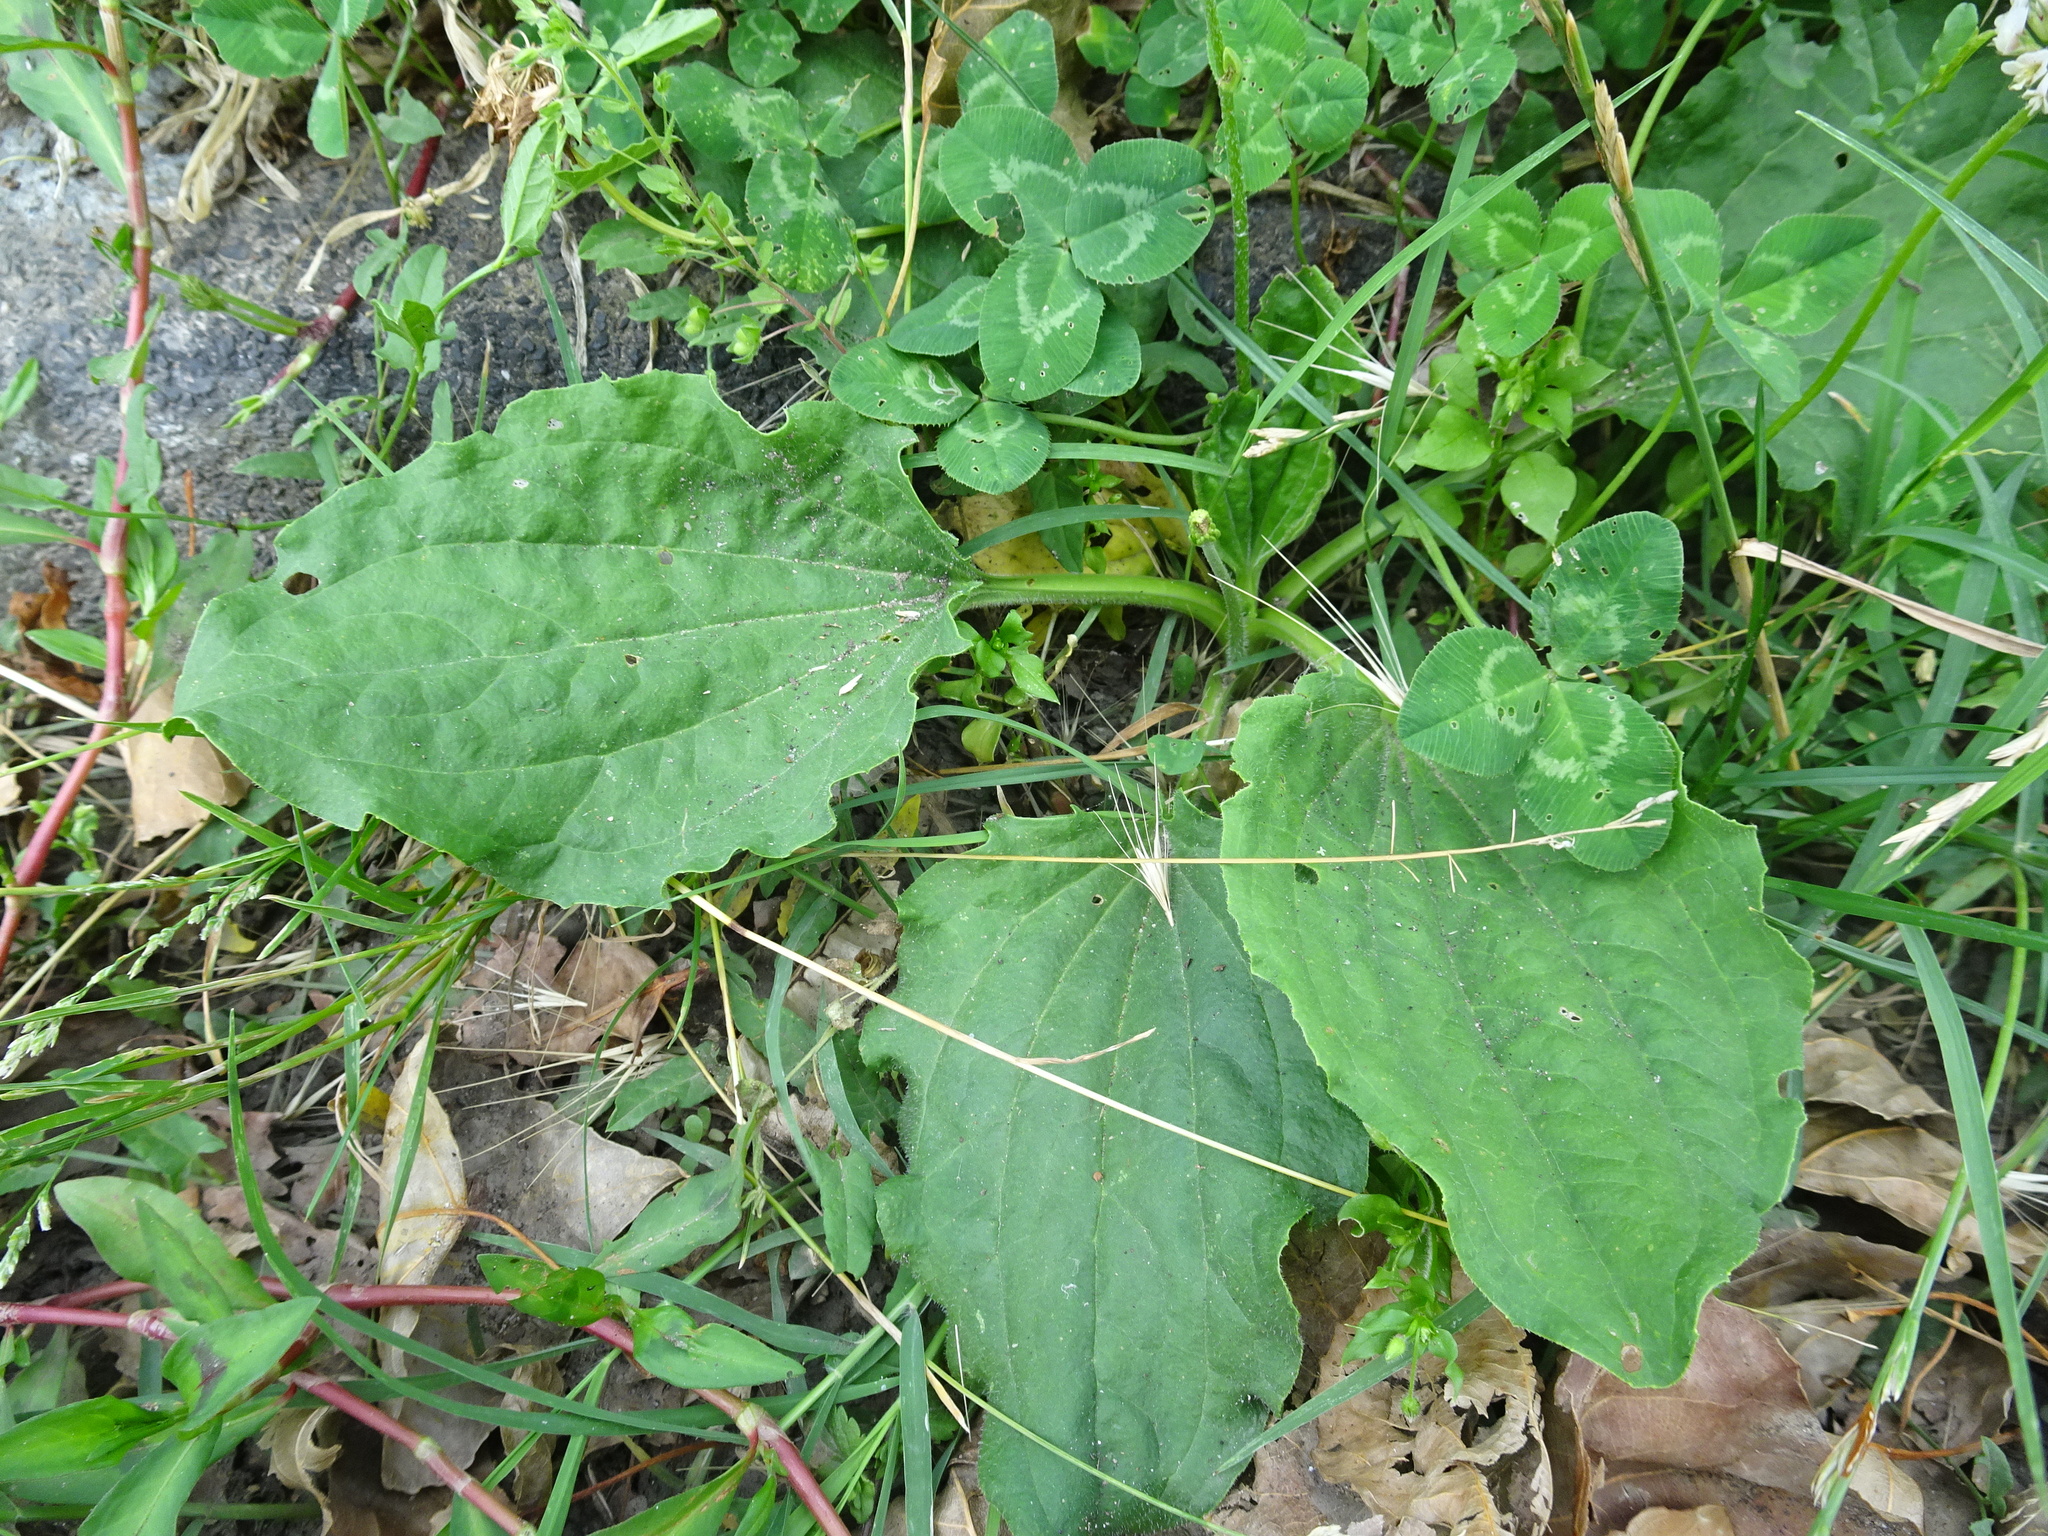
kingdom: Plantae
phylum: Tracheophyta
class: Magnoliopsida
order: Lamiales
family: Plantaginaceae
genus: Plantago
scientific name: Plantago major
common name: Common plantain
